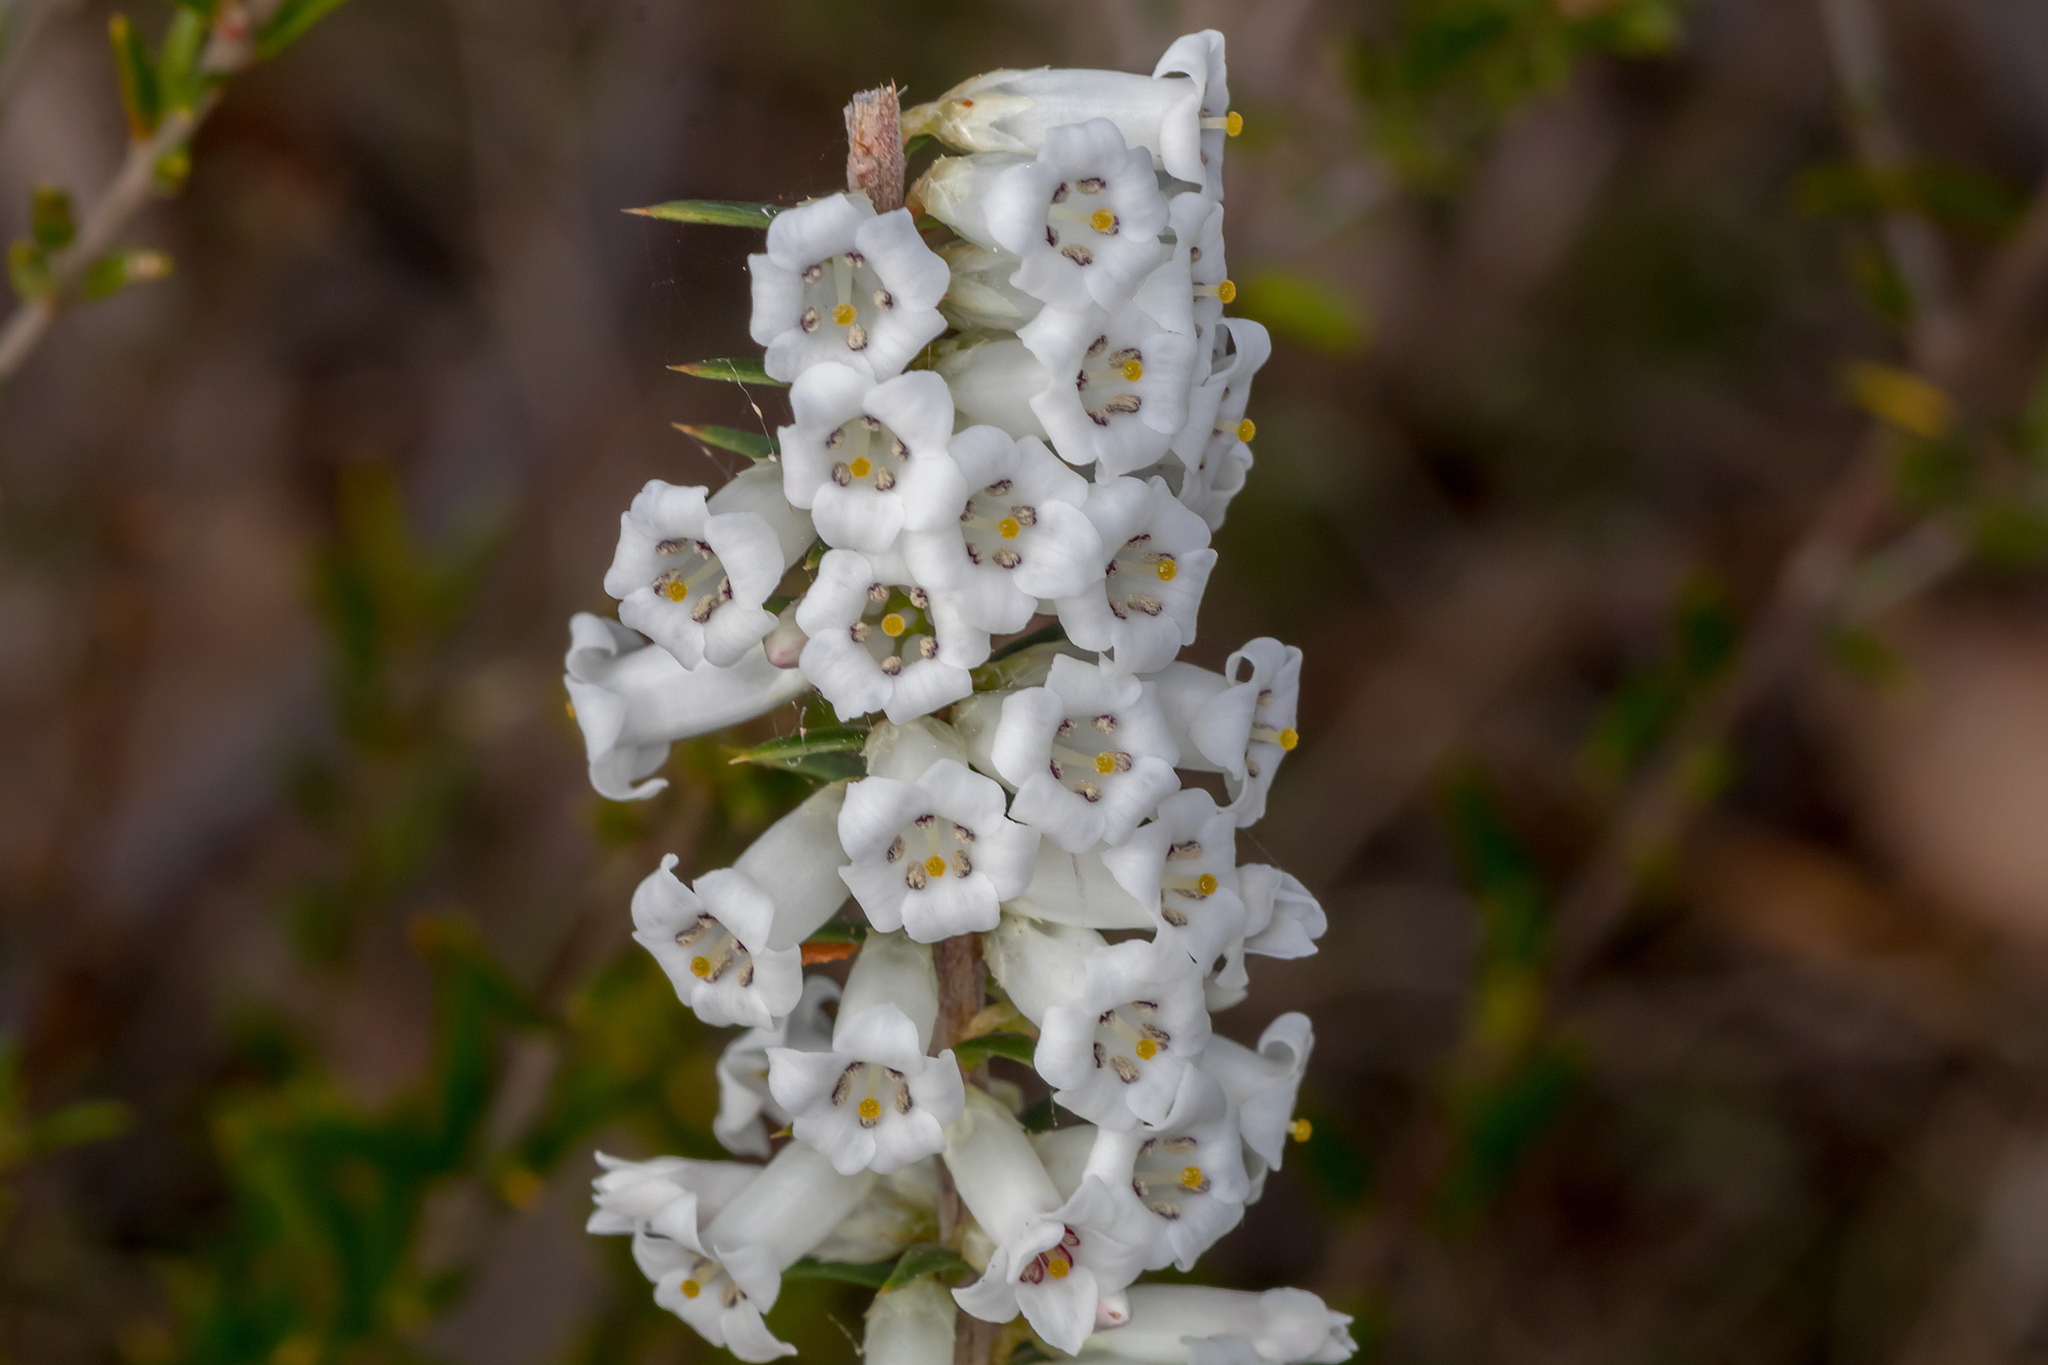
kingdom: Plantae
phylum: Tracheophyta
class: Magnoliopsida
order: Ericales
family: Ericaceae
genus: Epacris
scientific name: Epacris impressa
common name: Common-heath
